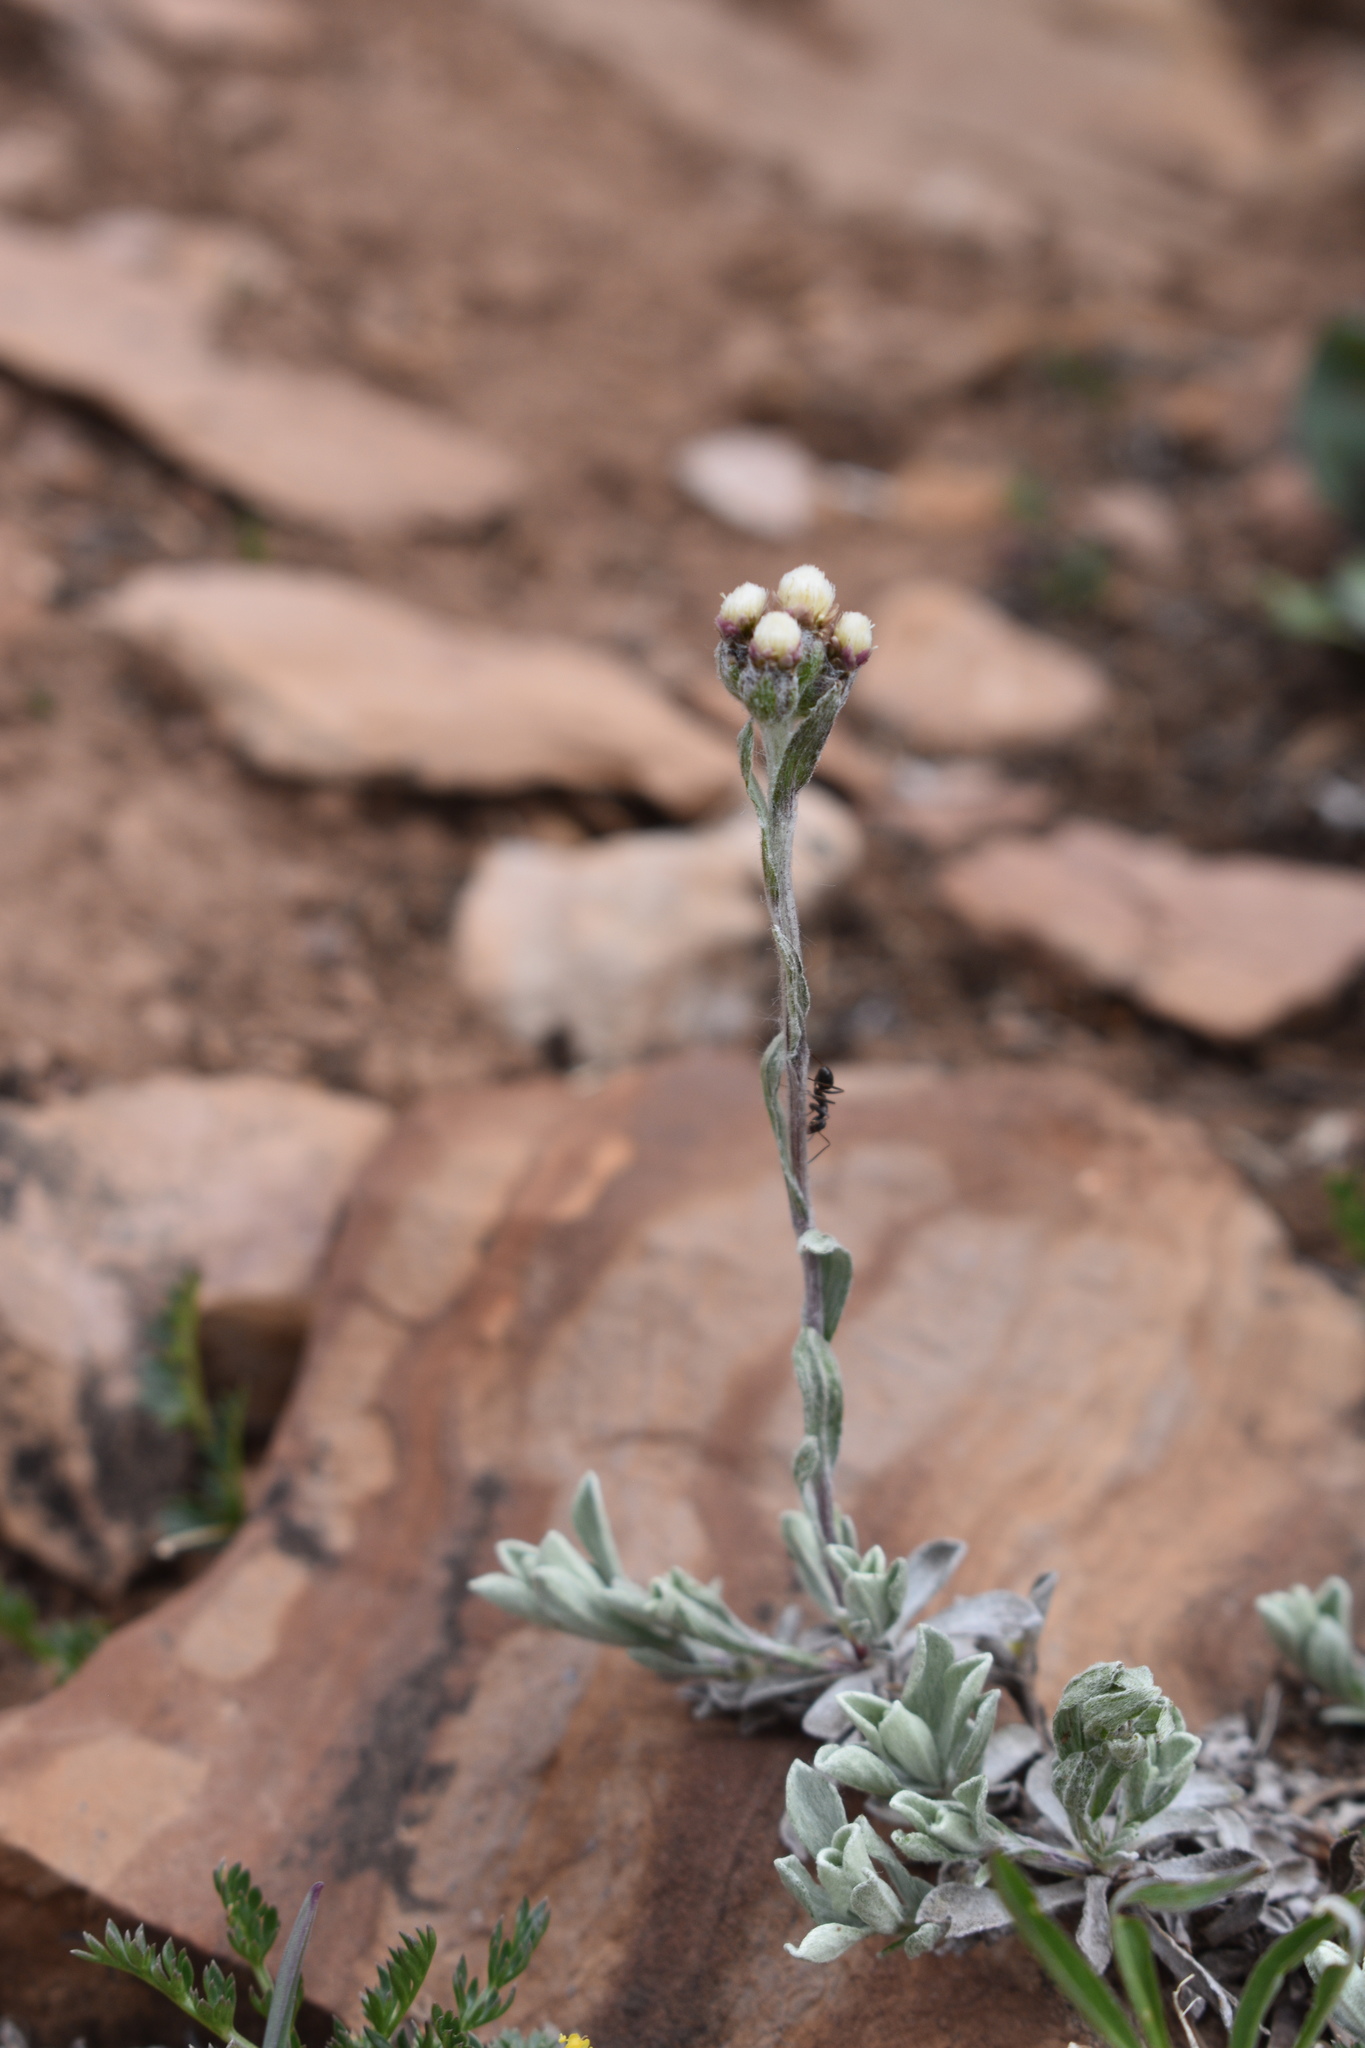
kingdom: Plantae
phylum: Tracheophyta
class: Magnoliopsida
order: Asterales
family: Asteraceae
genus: Antennaria
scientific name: Antennaria rosea
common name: Rosy pussytoes
